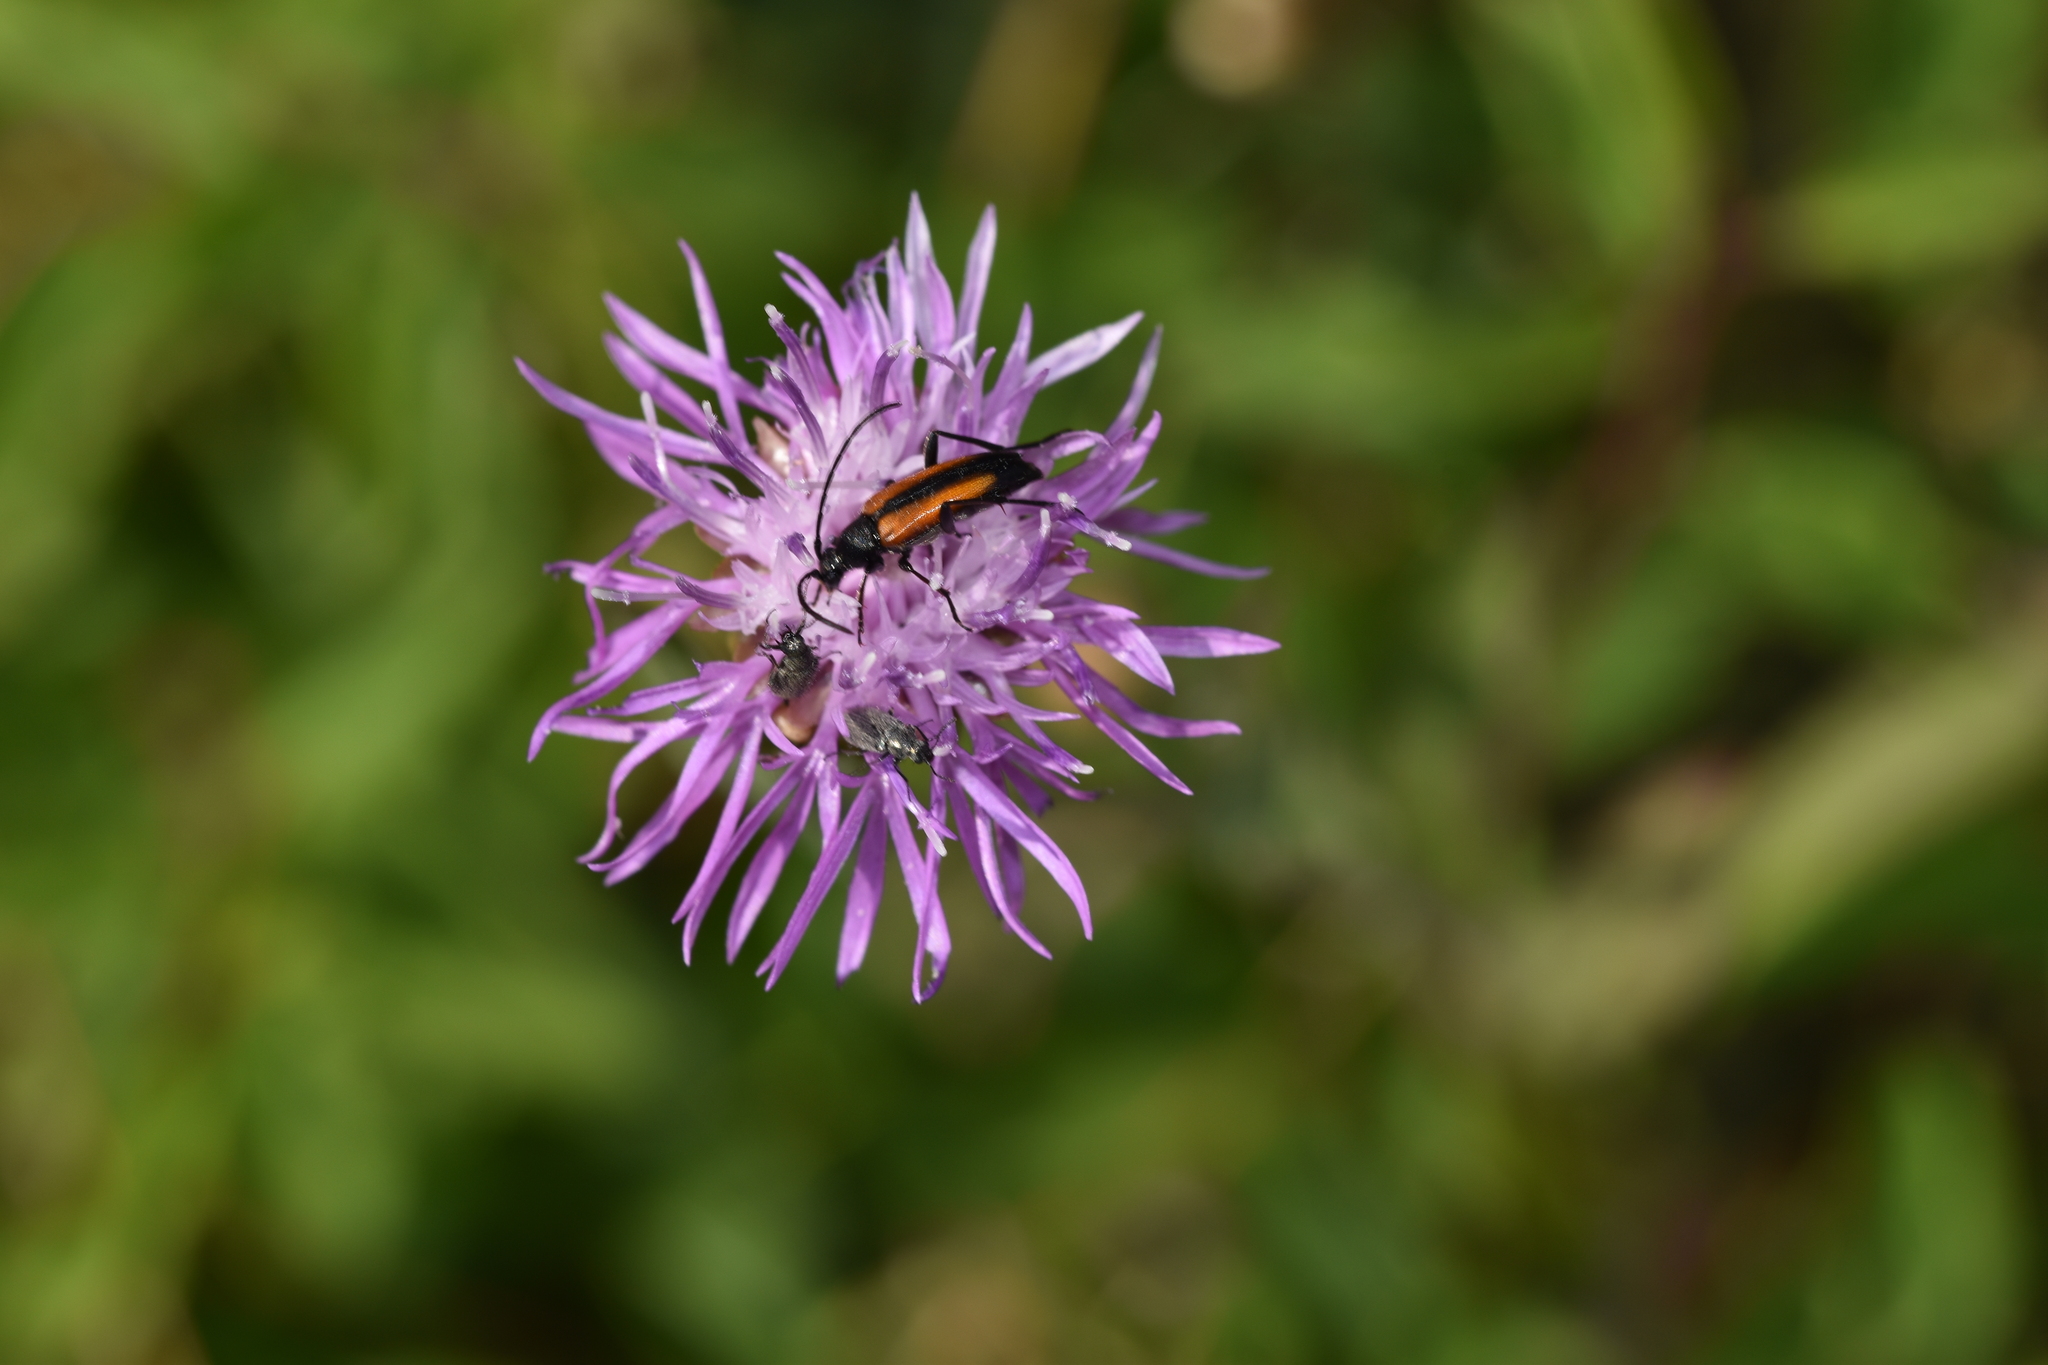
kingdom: Animalia
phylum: Arthropoda
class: Insecta
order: Coleoptera
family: Cerambycidae
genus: Stenurella
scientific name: Stenurella melanura
